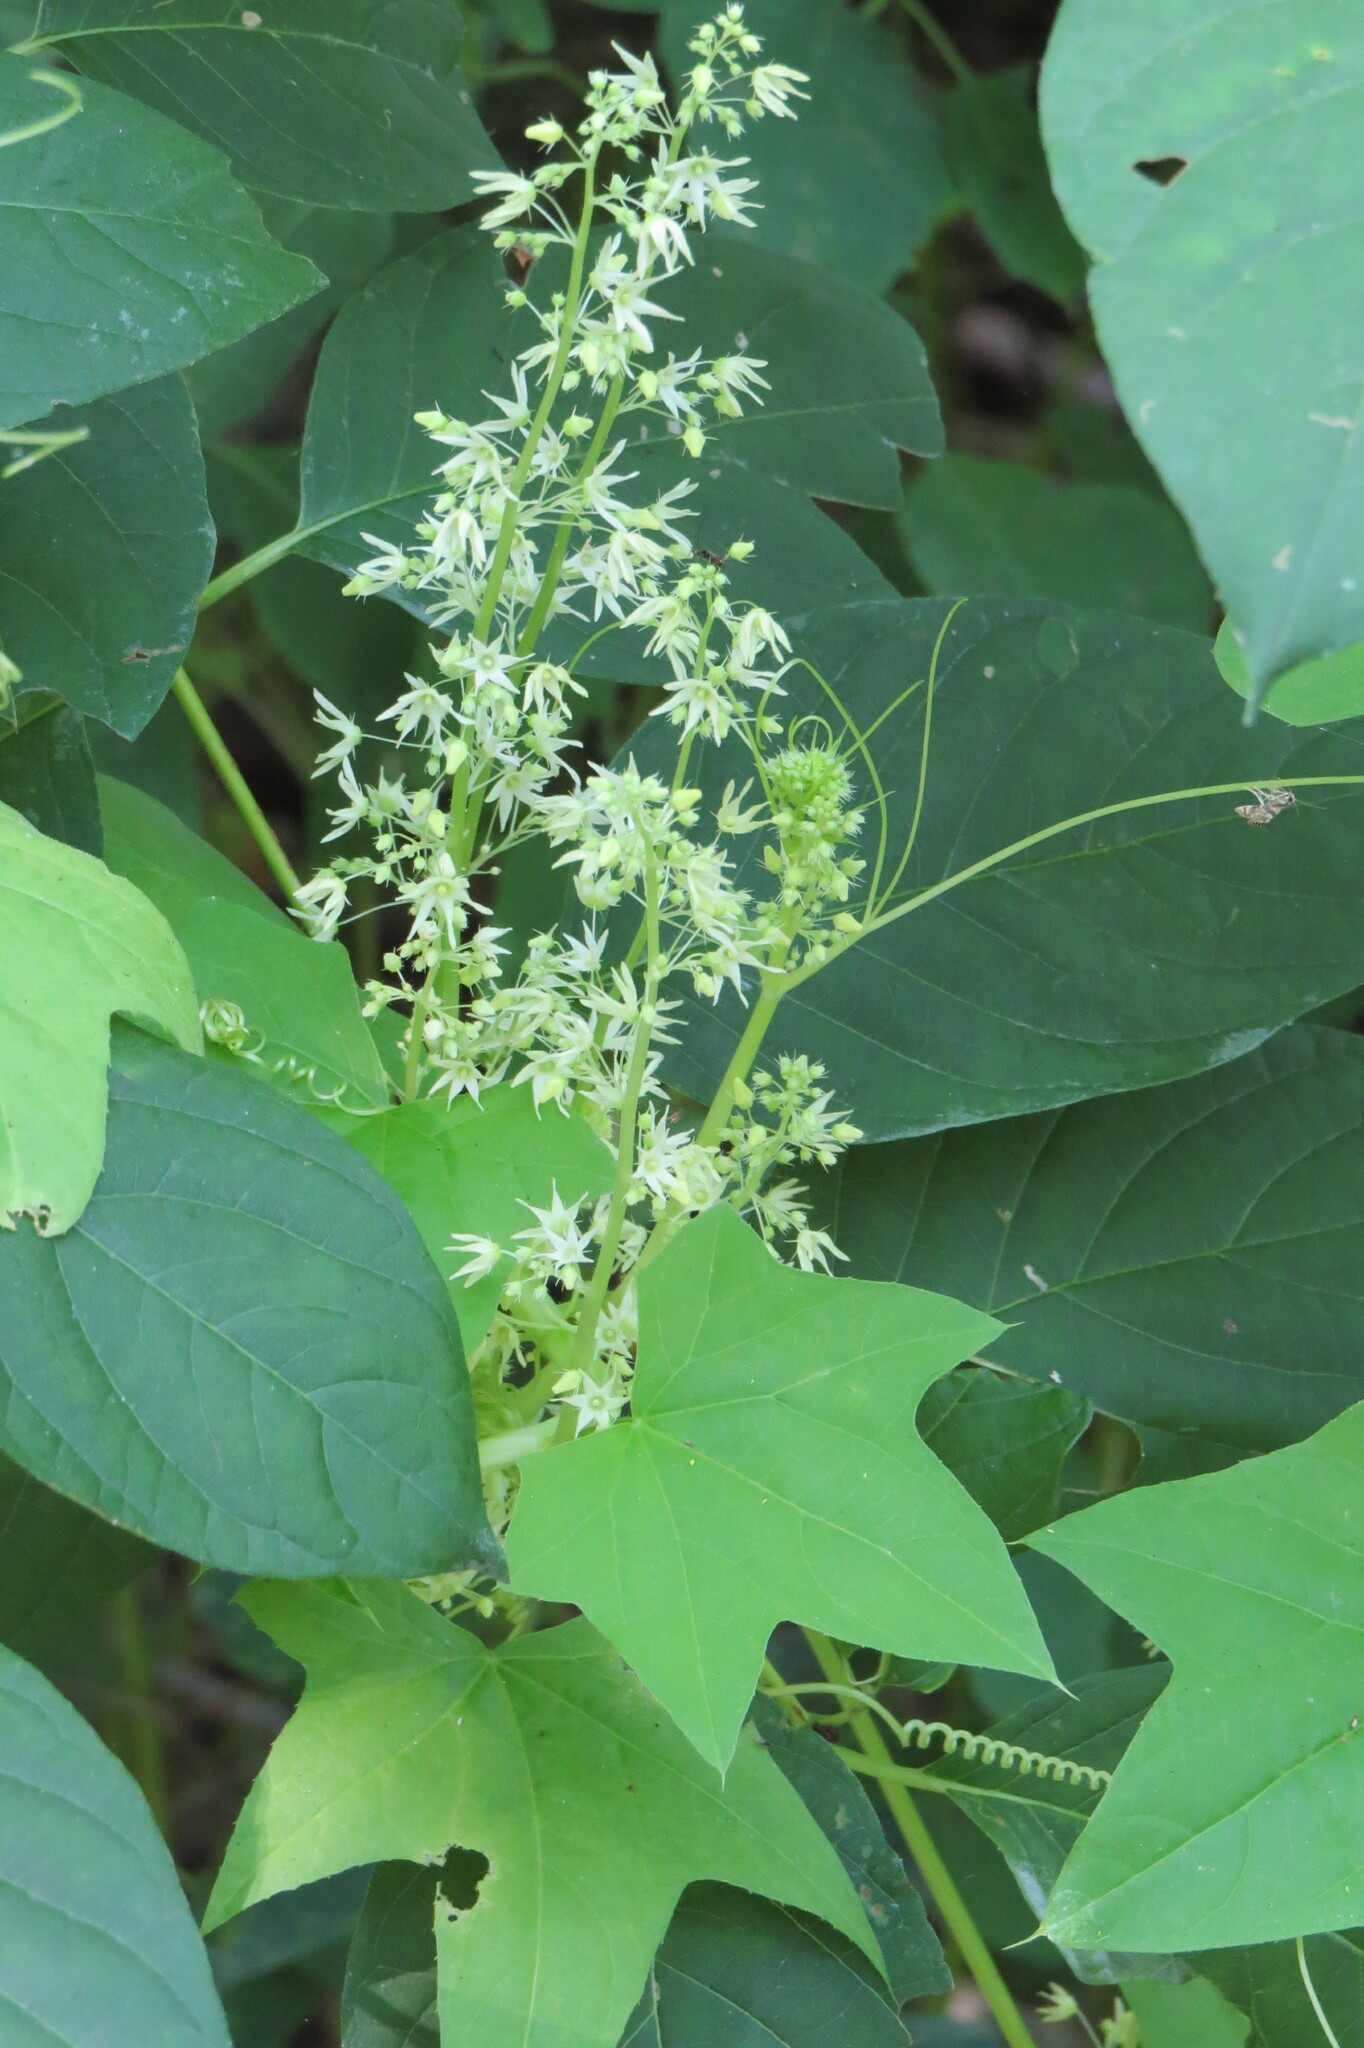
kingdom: Plantae
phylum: Tracheophyta
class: Magnoliopsida
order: Cucurbitales
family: Cucurbitaceae
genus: Echinocystis
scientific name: Echinocystis lobata
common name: Wild cucumber
